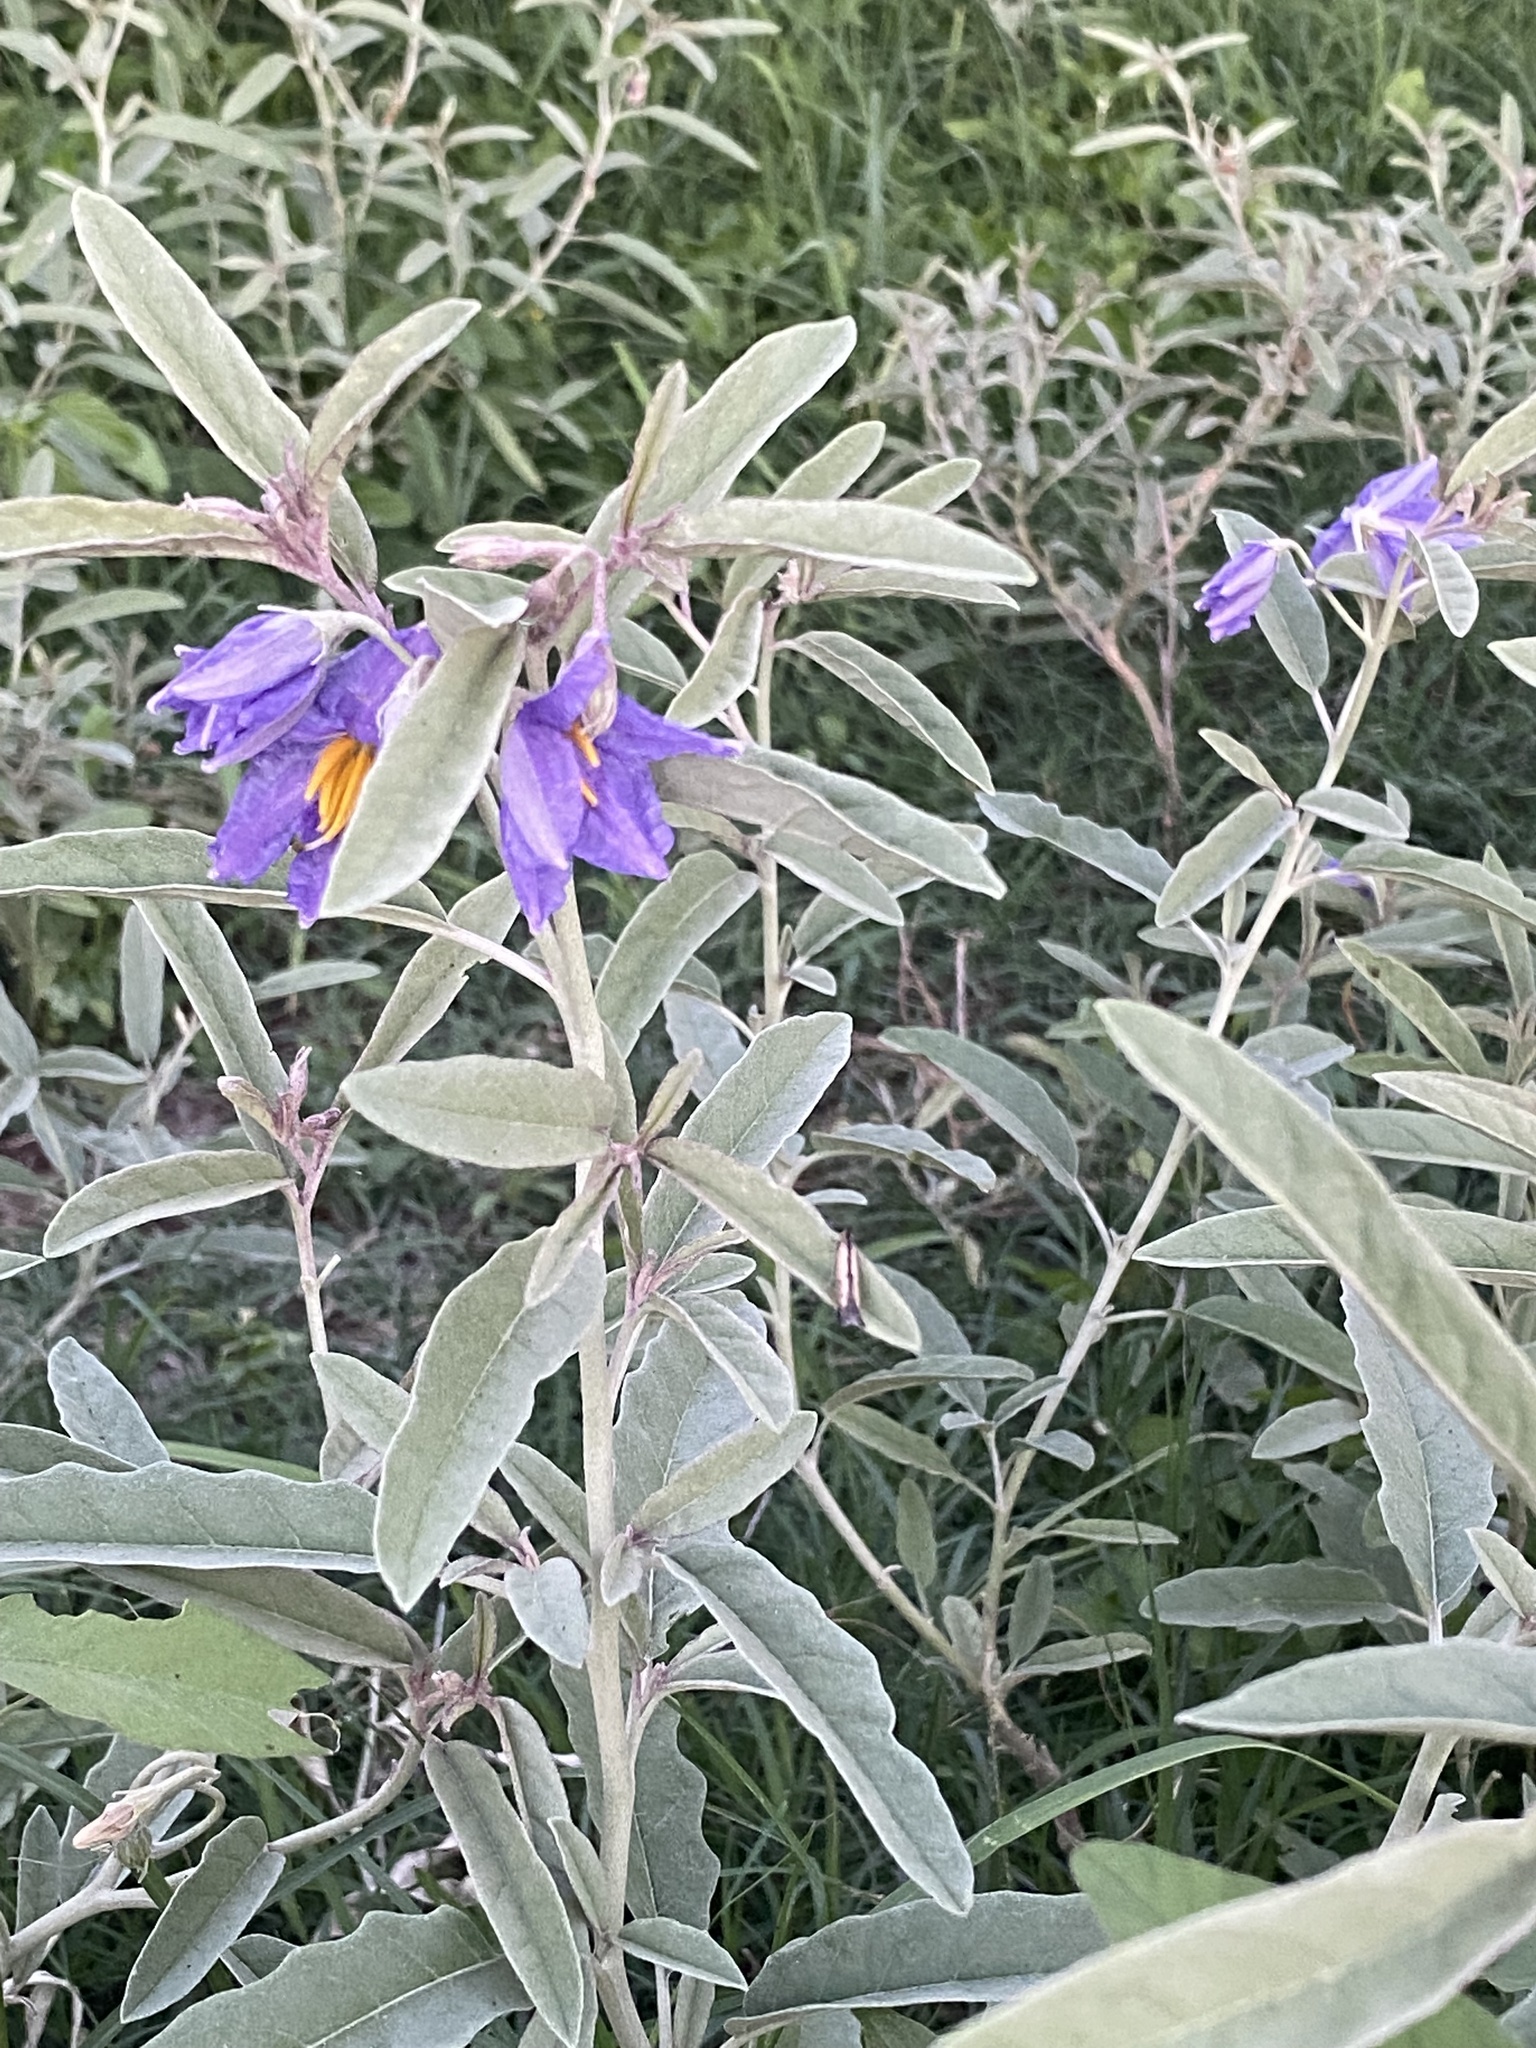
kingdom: Plantae
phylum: Tracheophyta
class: Magnoliopsida
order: Solanales
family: Solanaceae
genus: Solanum
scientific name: Solanum elaeagnifolium
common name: Silverleaf nightshade
